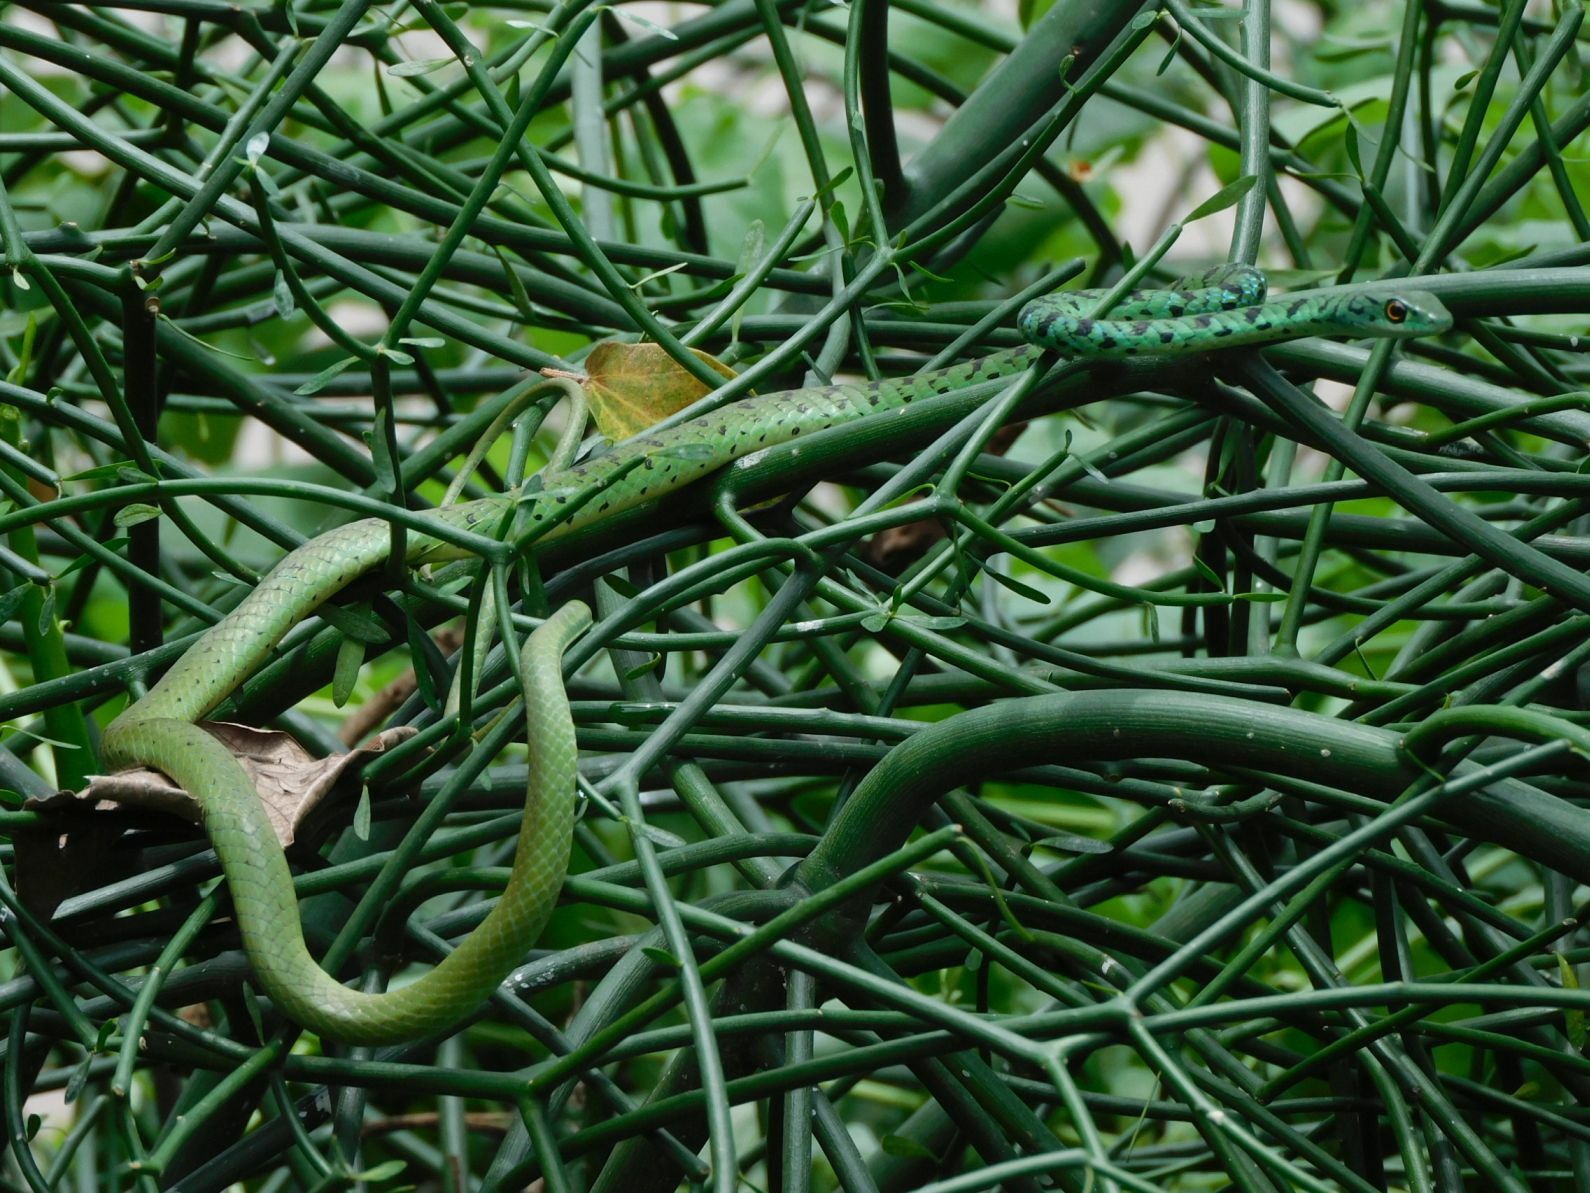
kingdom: Animalia
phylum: Chordata
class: Squamata
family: Colubridae
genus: Philothamnus
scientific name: Philothamnus semivariegatus
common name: Spotted bush snake
